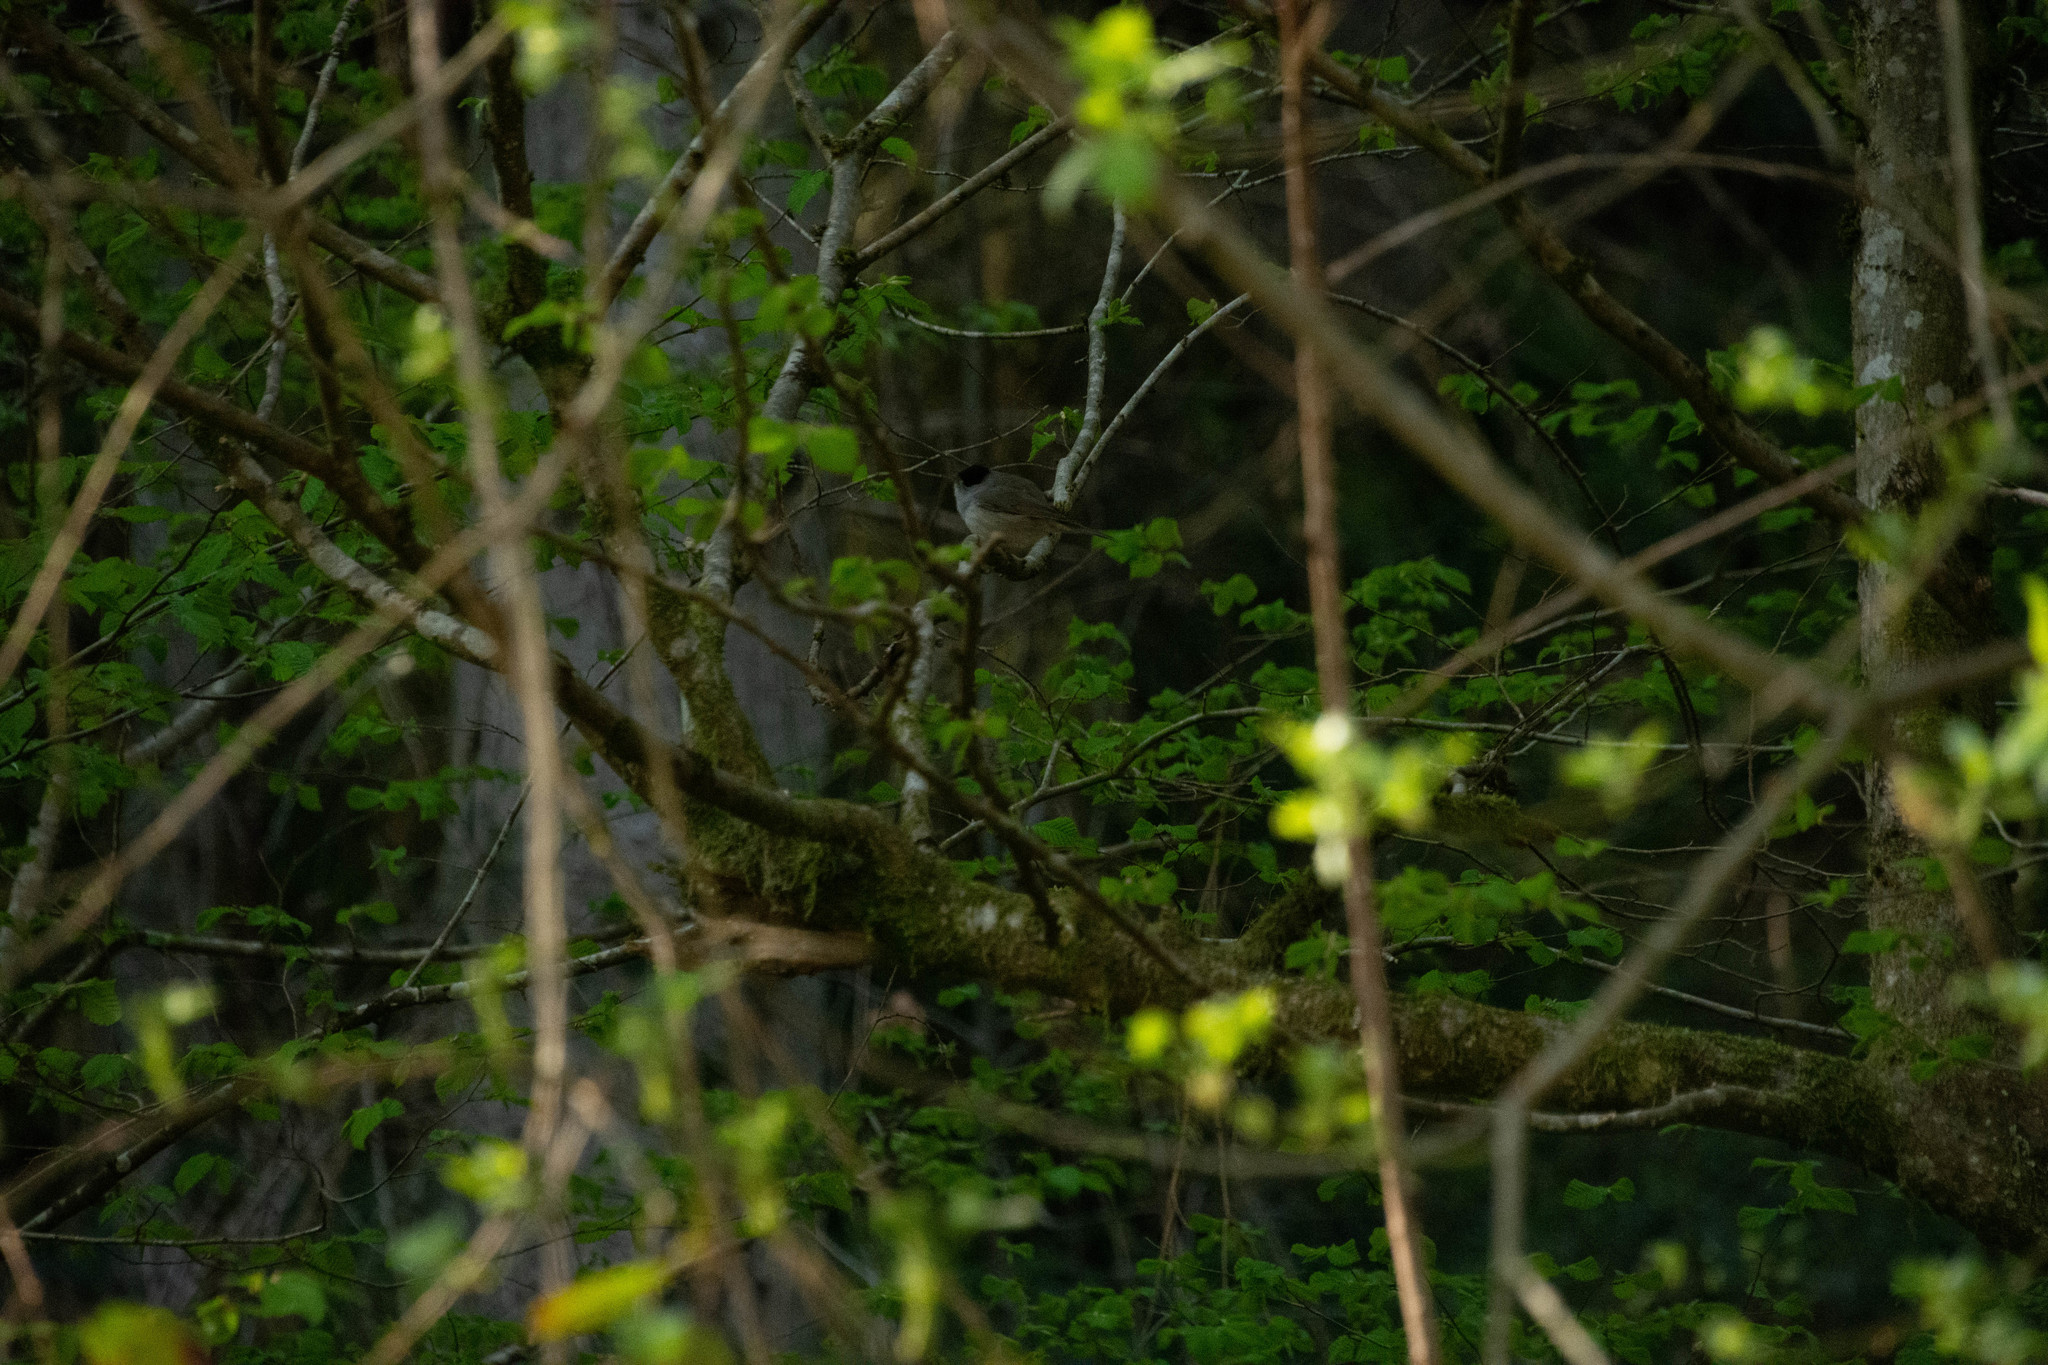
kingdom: Animalia
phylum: Chordata
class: Aves
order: Passeriformes
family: Sylviidae
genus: Sylvia
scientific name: Sylvia atricapilla
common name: Eurasian blackcap
